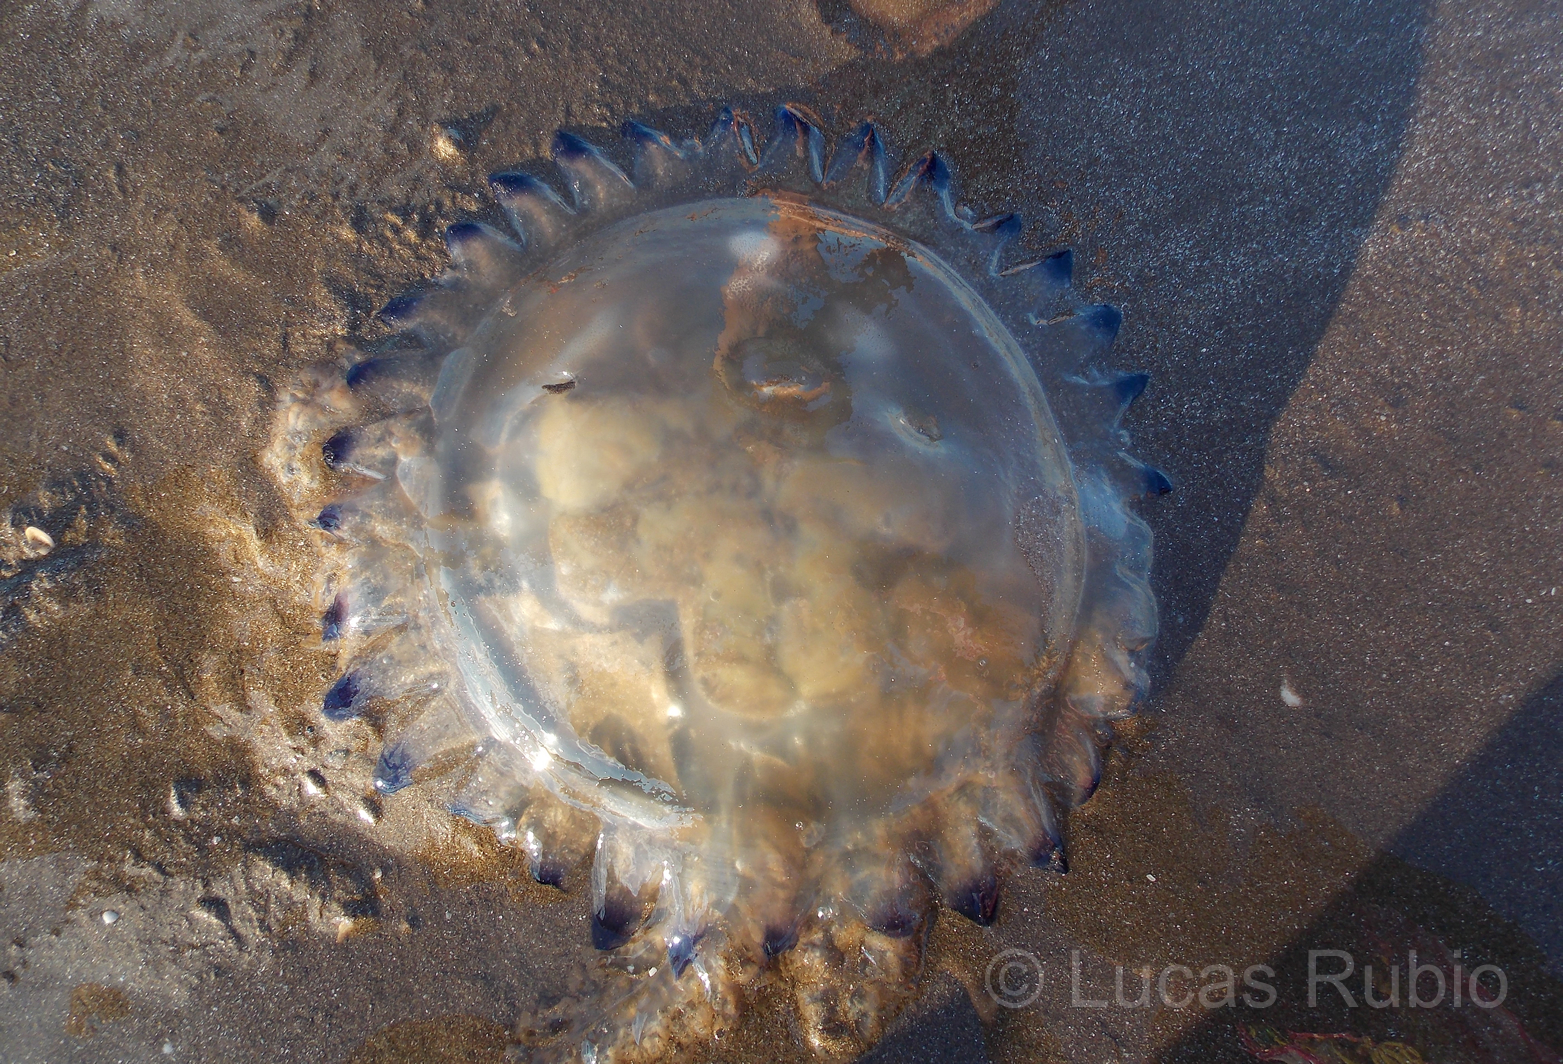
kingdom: Animalia
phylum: Cnidaria
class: Scyphozoa
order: Rhizostomeae
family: Lychnorhizidae
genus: Lychnorhiza
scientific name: Lychnorhiza lucerna
